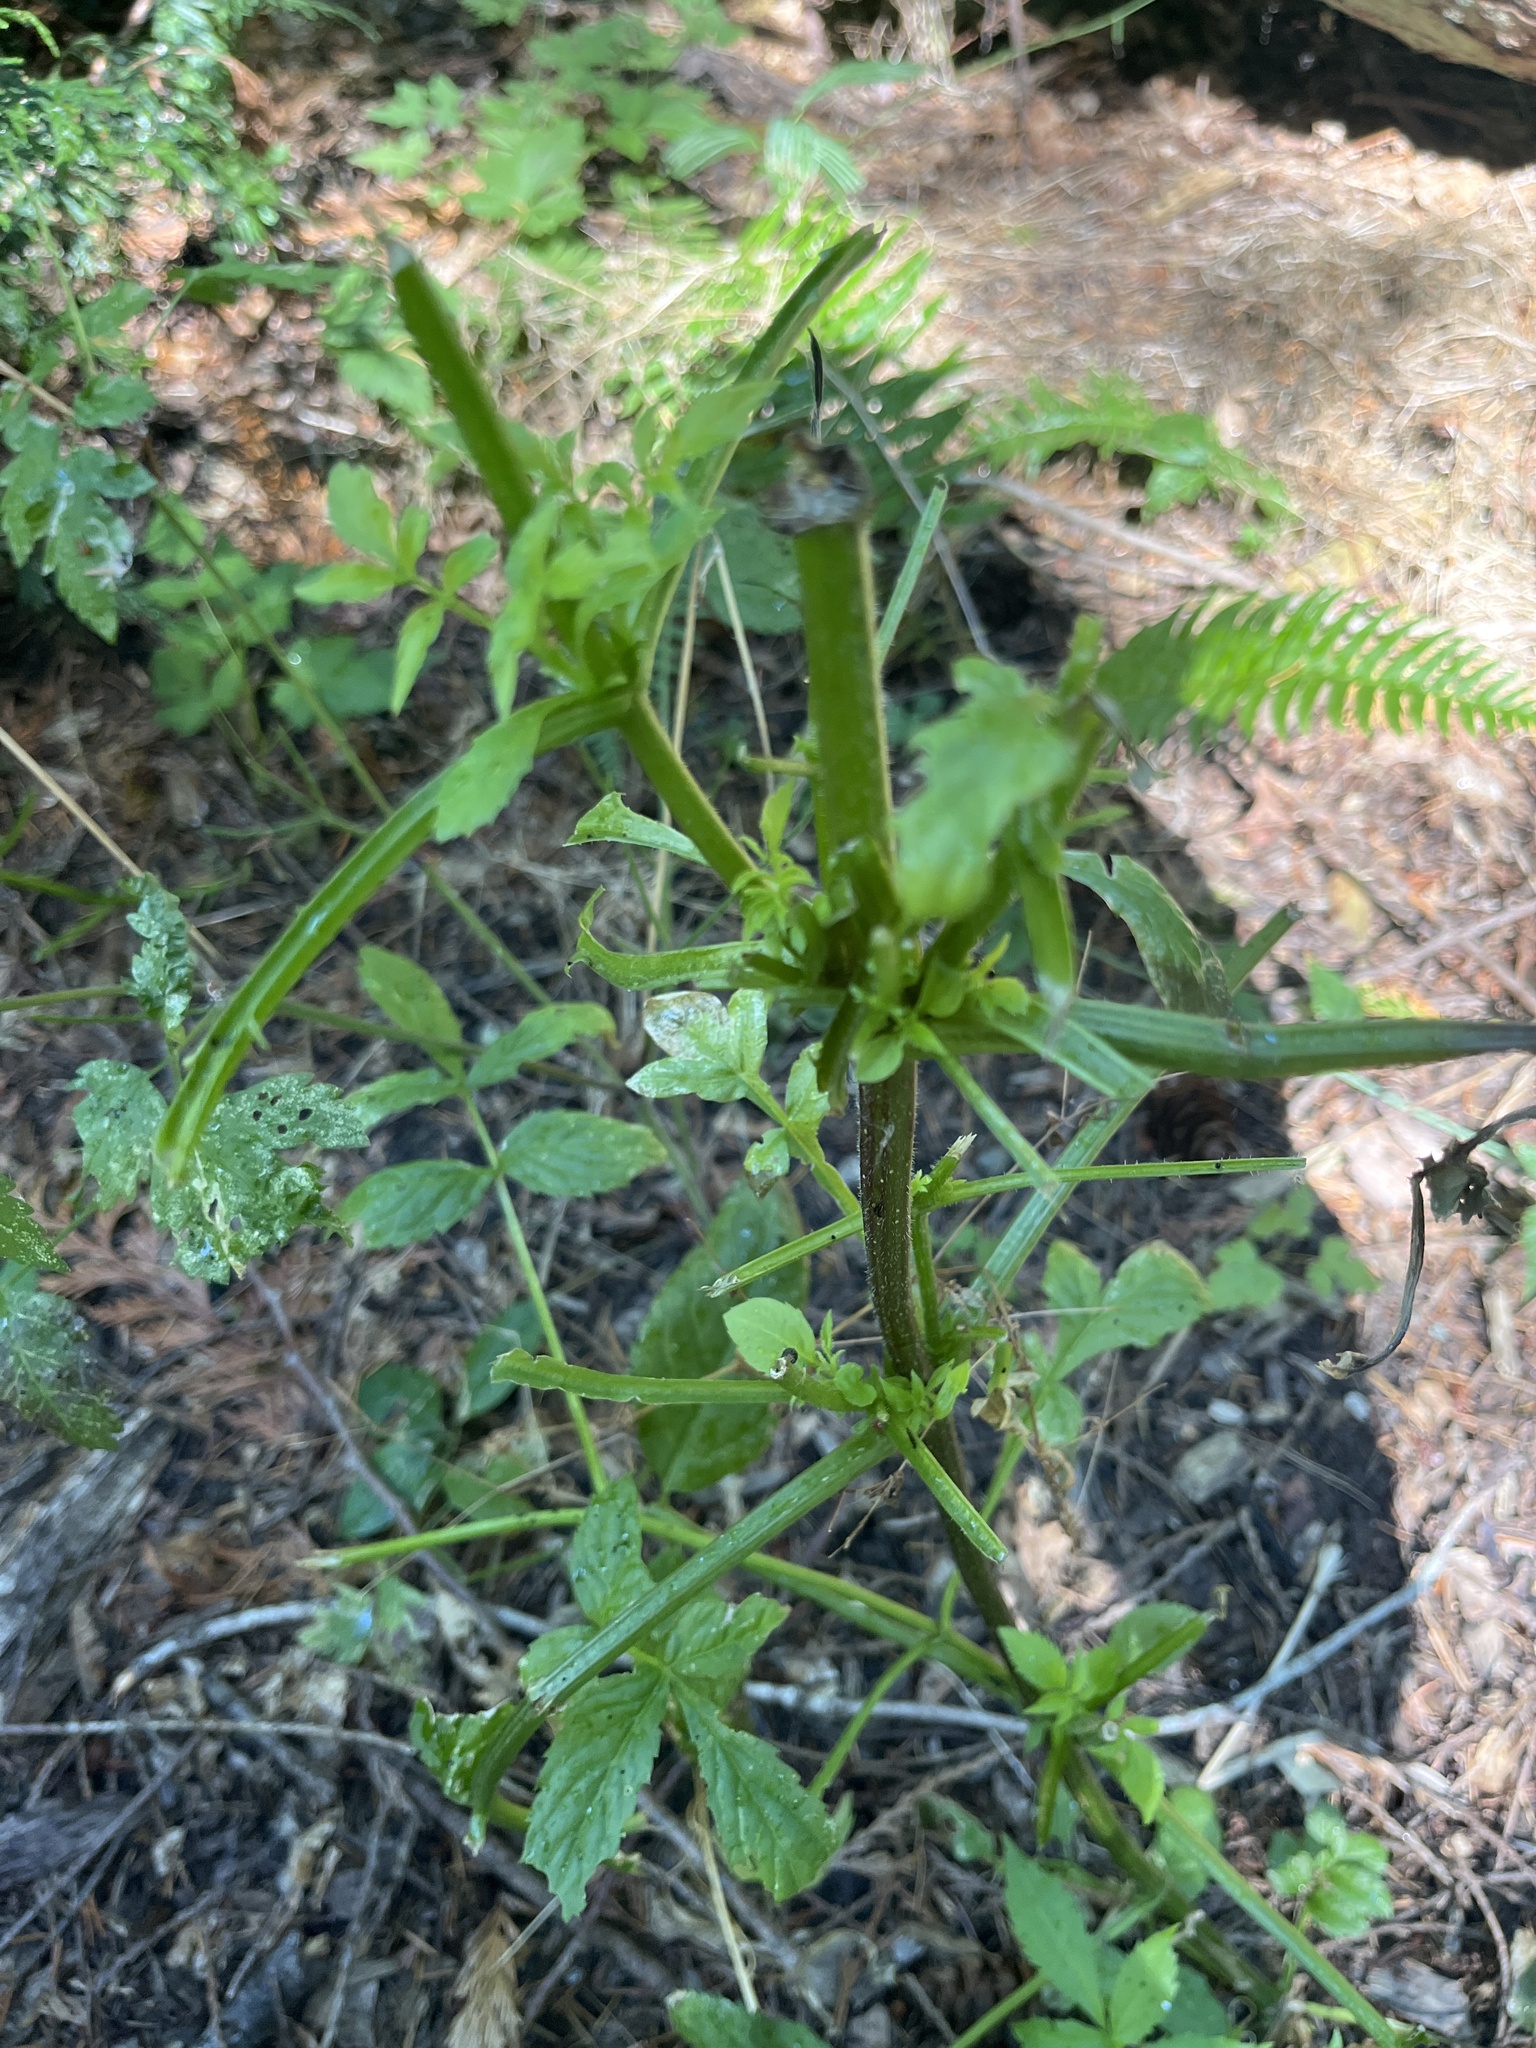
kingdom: Plantae
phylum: Tracheophyta
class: Magnoliopsida
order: Dipsacales
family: Viburnaceae
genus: Sambucus
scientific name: Sambucus racemosa
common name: Red-berried elder
